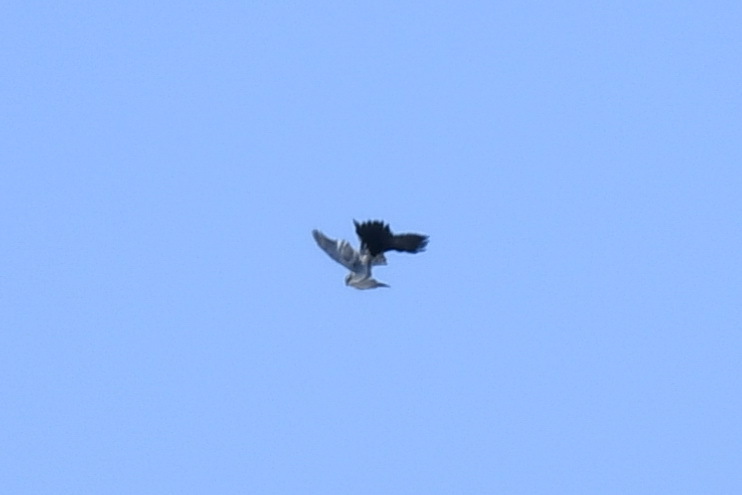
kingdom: Animalia
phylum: Chordata
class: Aves
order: Accipitriformes
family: Accipitridae
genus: Accipiter
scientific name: Accipiter gentilis
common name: Northern goshawk
